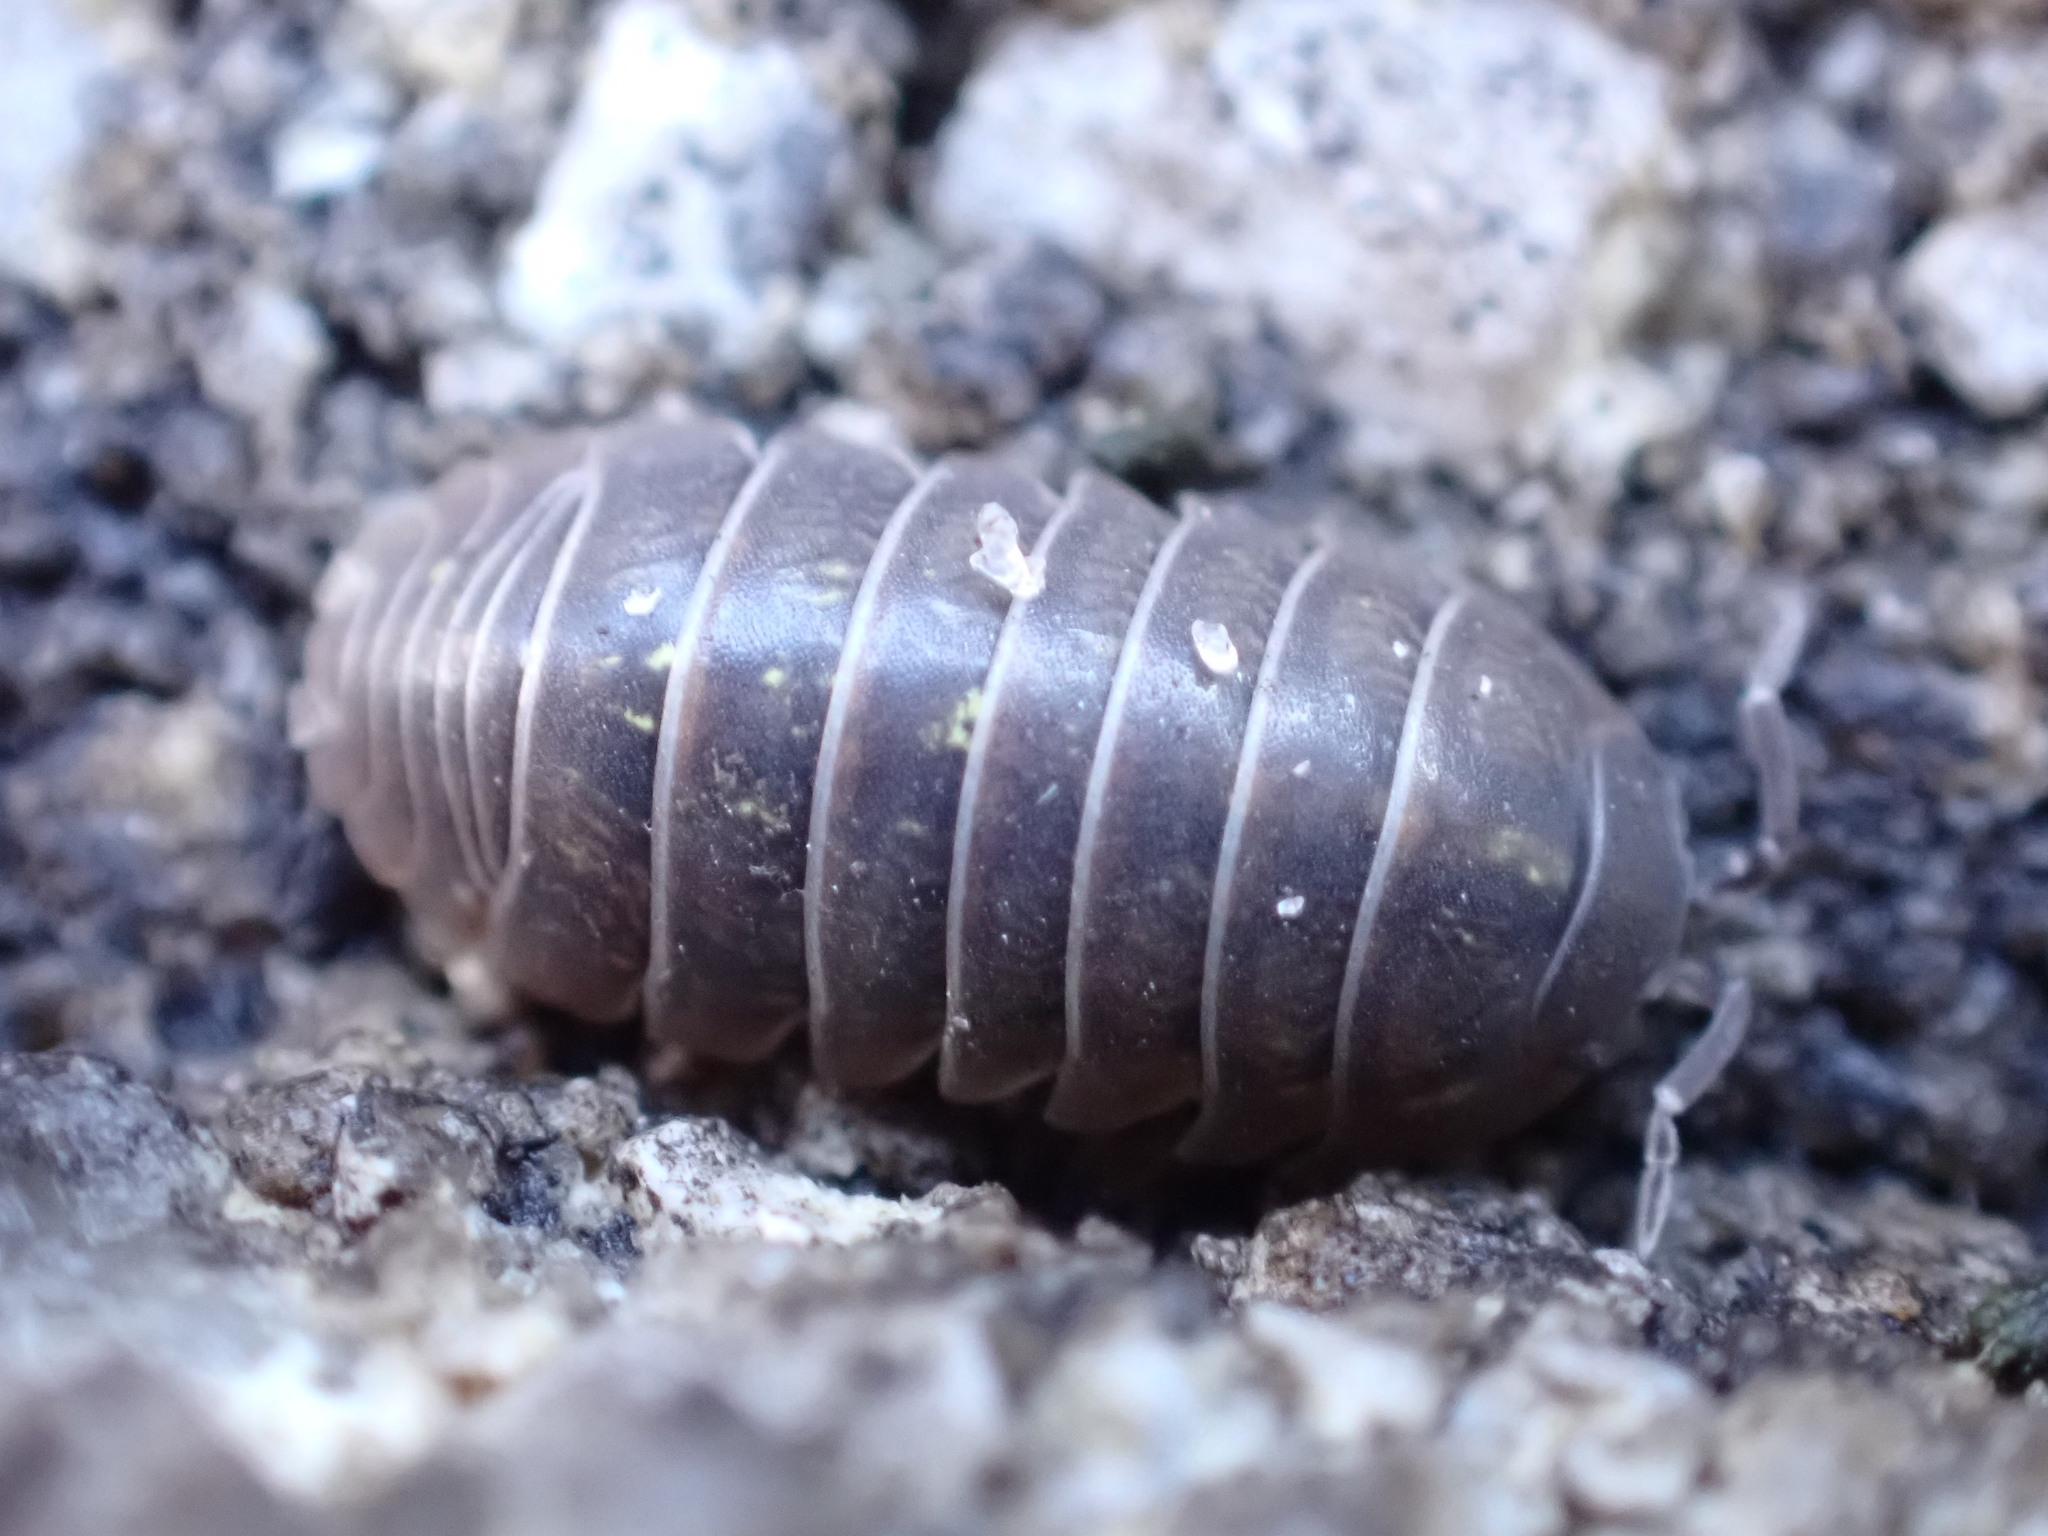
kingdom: Animalia
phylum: Arthropoda
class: Malacostraca
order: Isopoda
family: Armadillidiidae
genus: Armadillidium
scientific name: Armadillidium vulgare
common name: Common pill woodlouse
